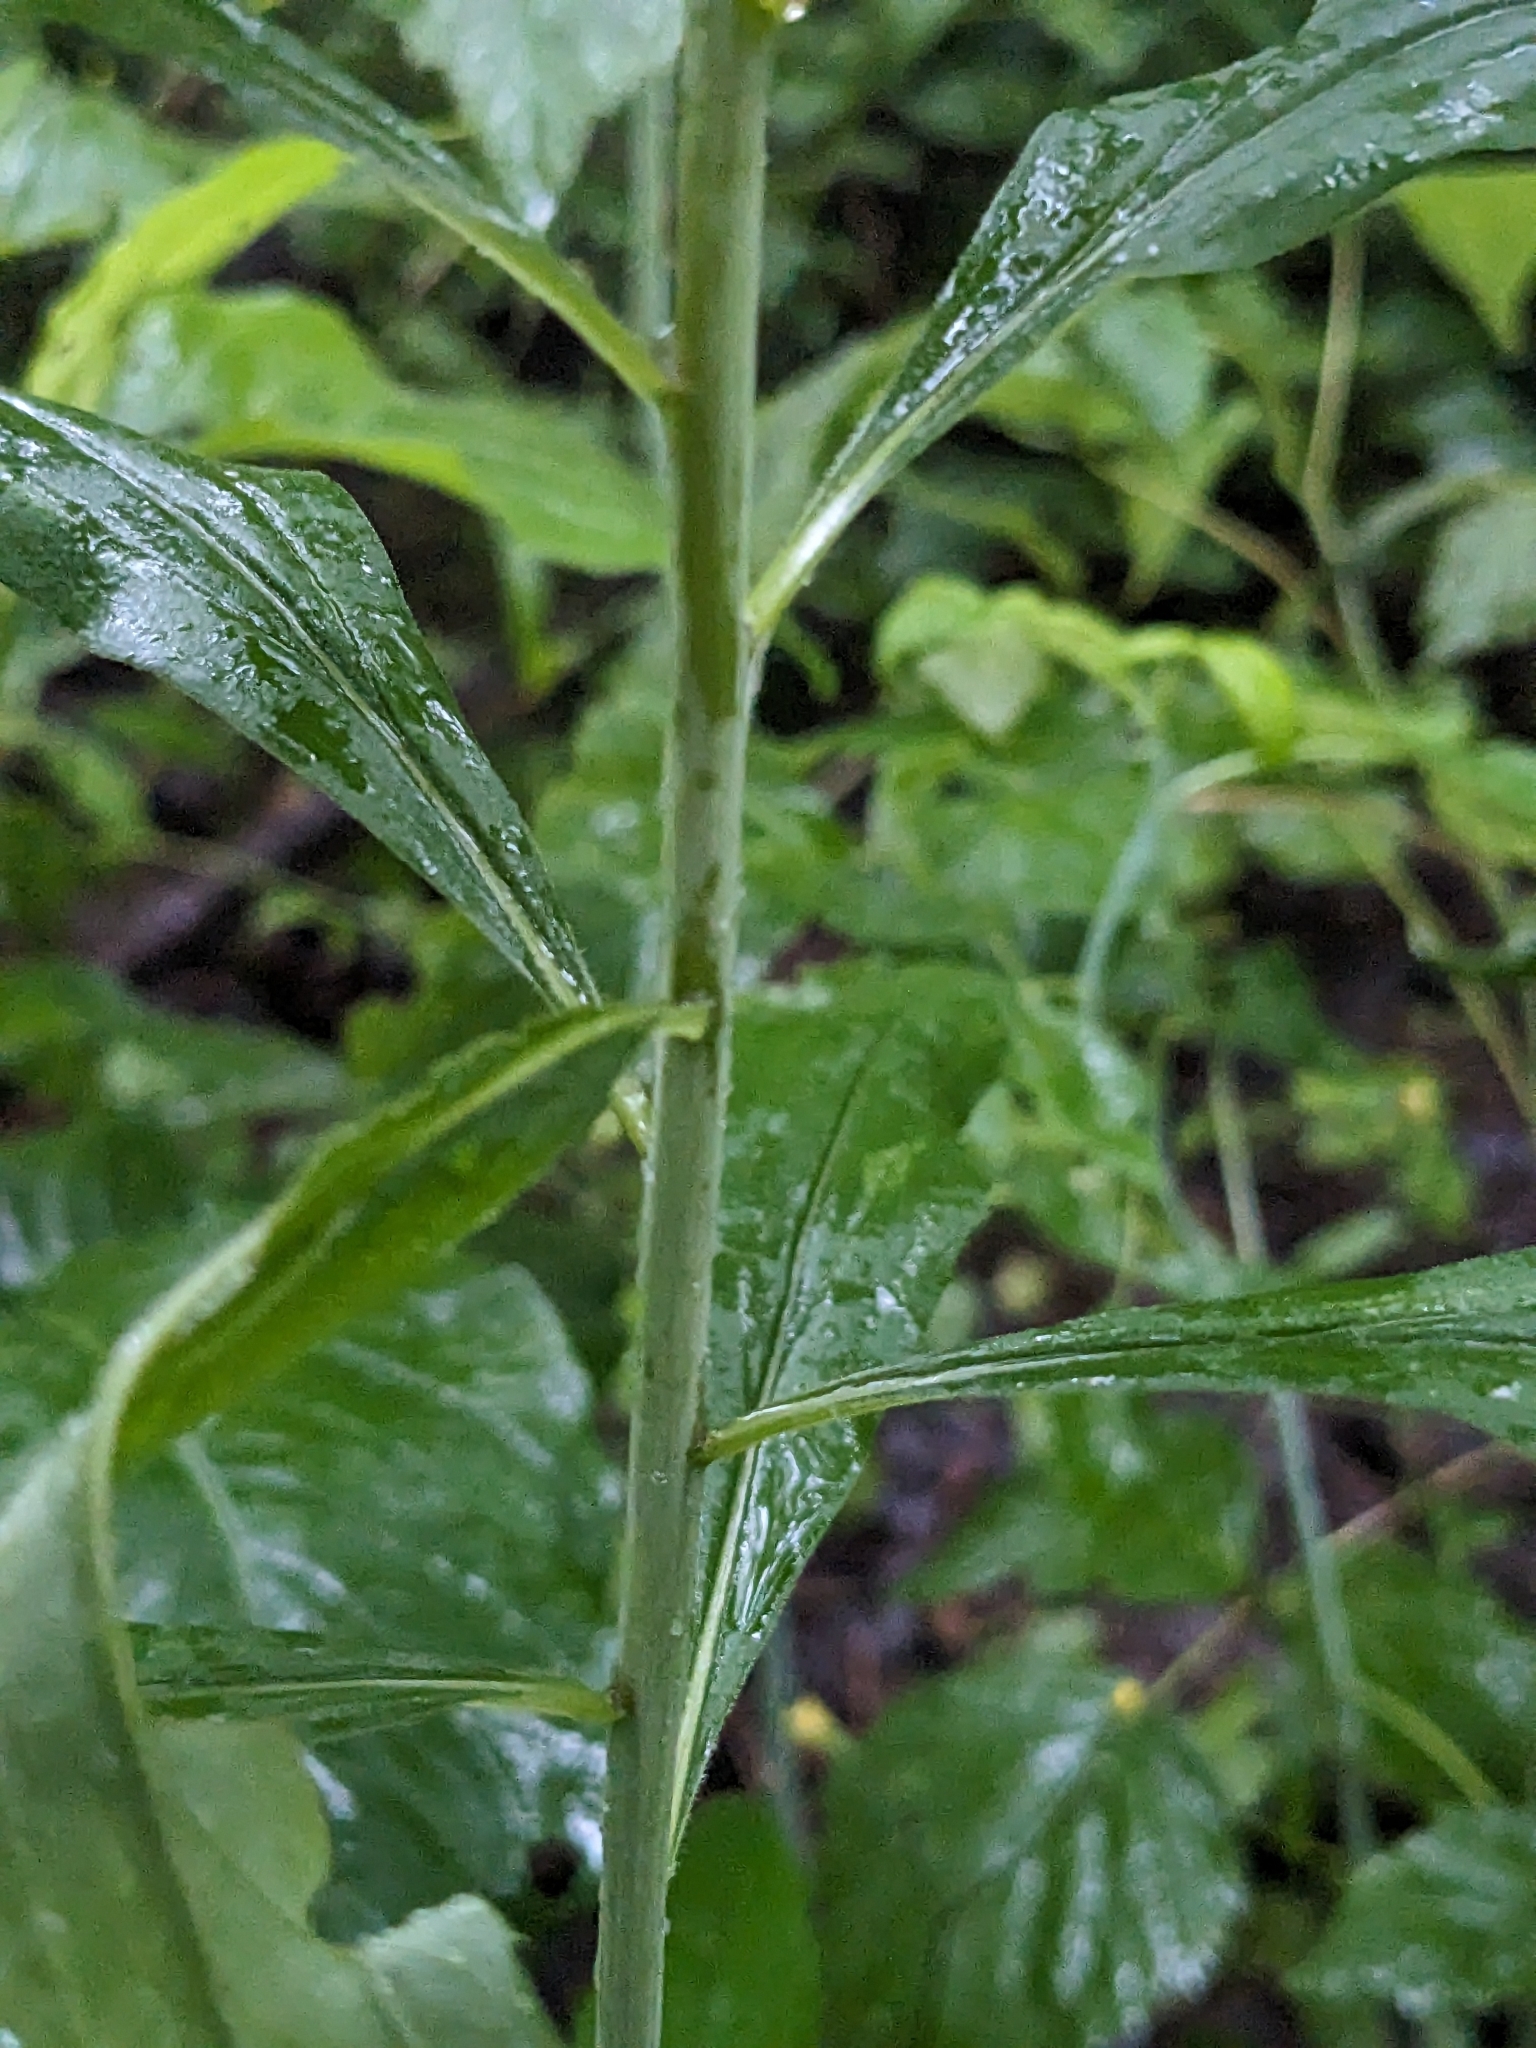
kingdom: Plantae
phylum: Tracheophyta
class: Magnoliopsida
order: Asterales
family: Asteraceae
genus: Solidago
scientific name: Solidago caesia
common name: Woodland goldenrod
